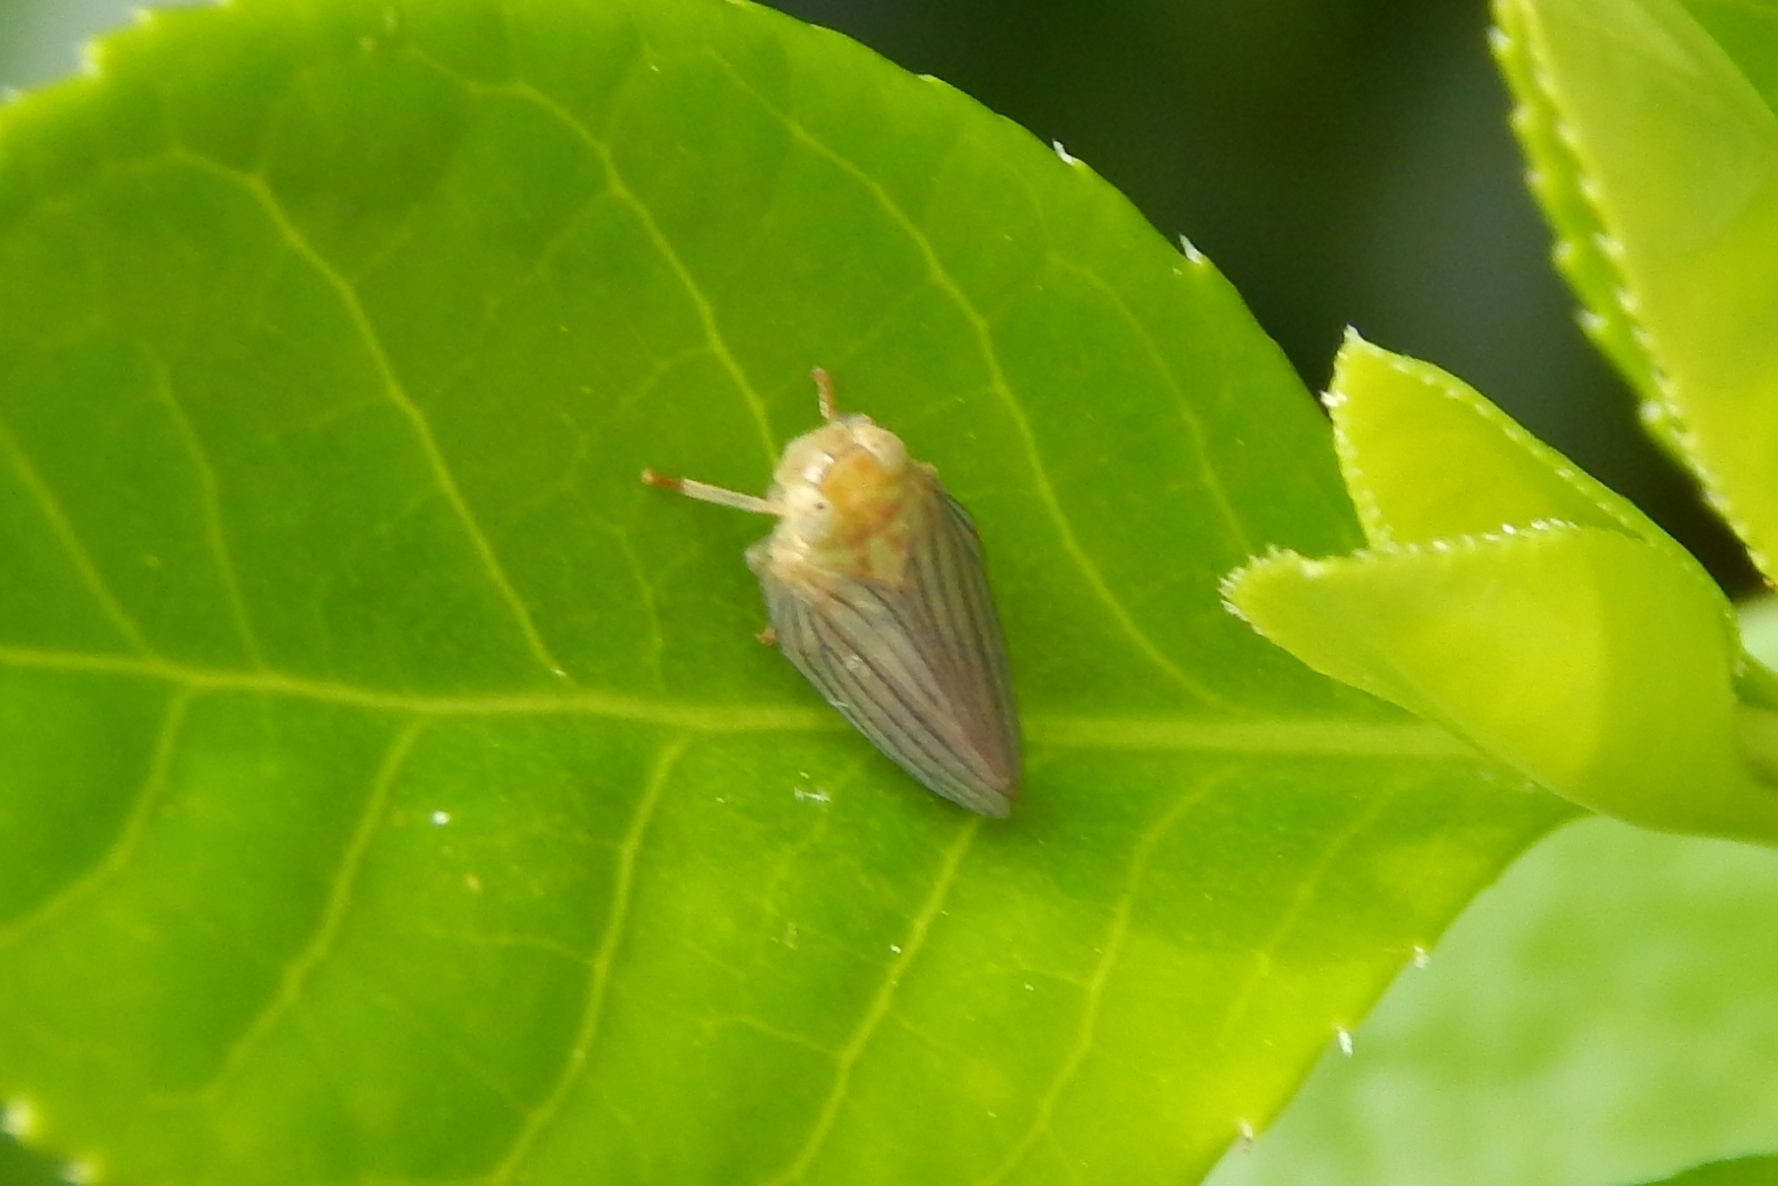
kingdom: Animalia
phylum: Arthropoda
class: Insecta
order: Hemiptera
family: Issidae
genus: Aplos
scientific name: Aplos simplex
